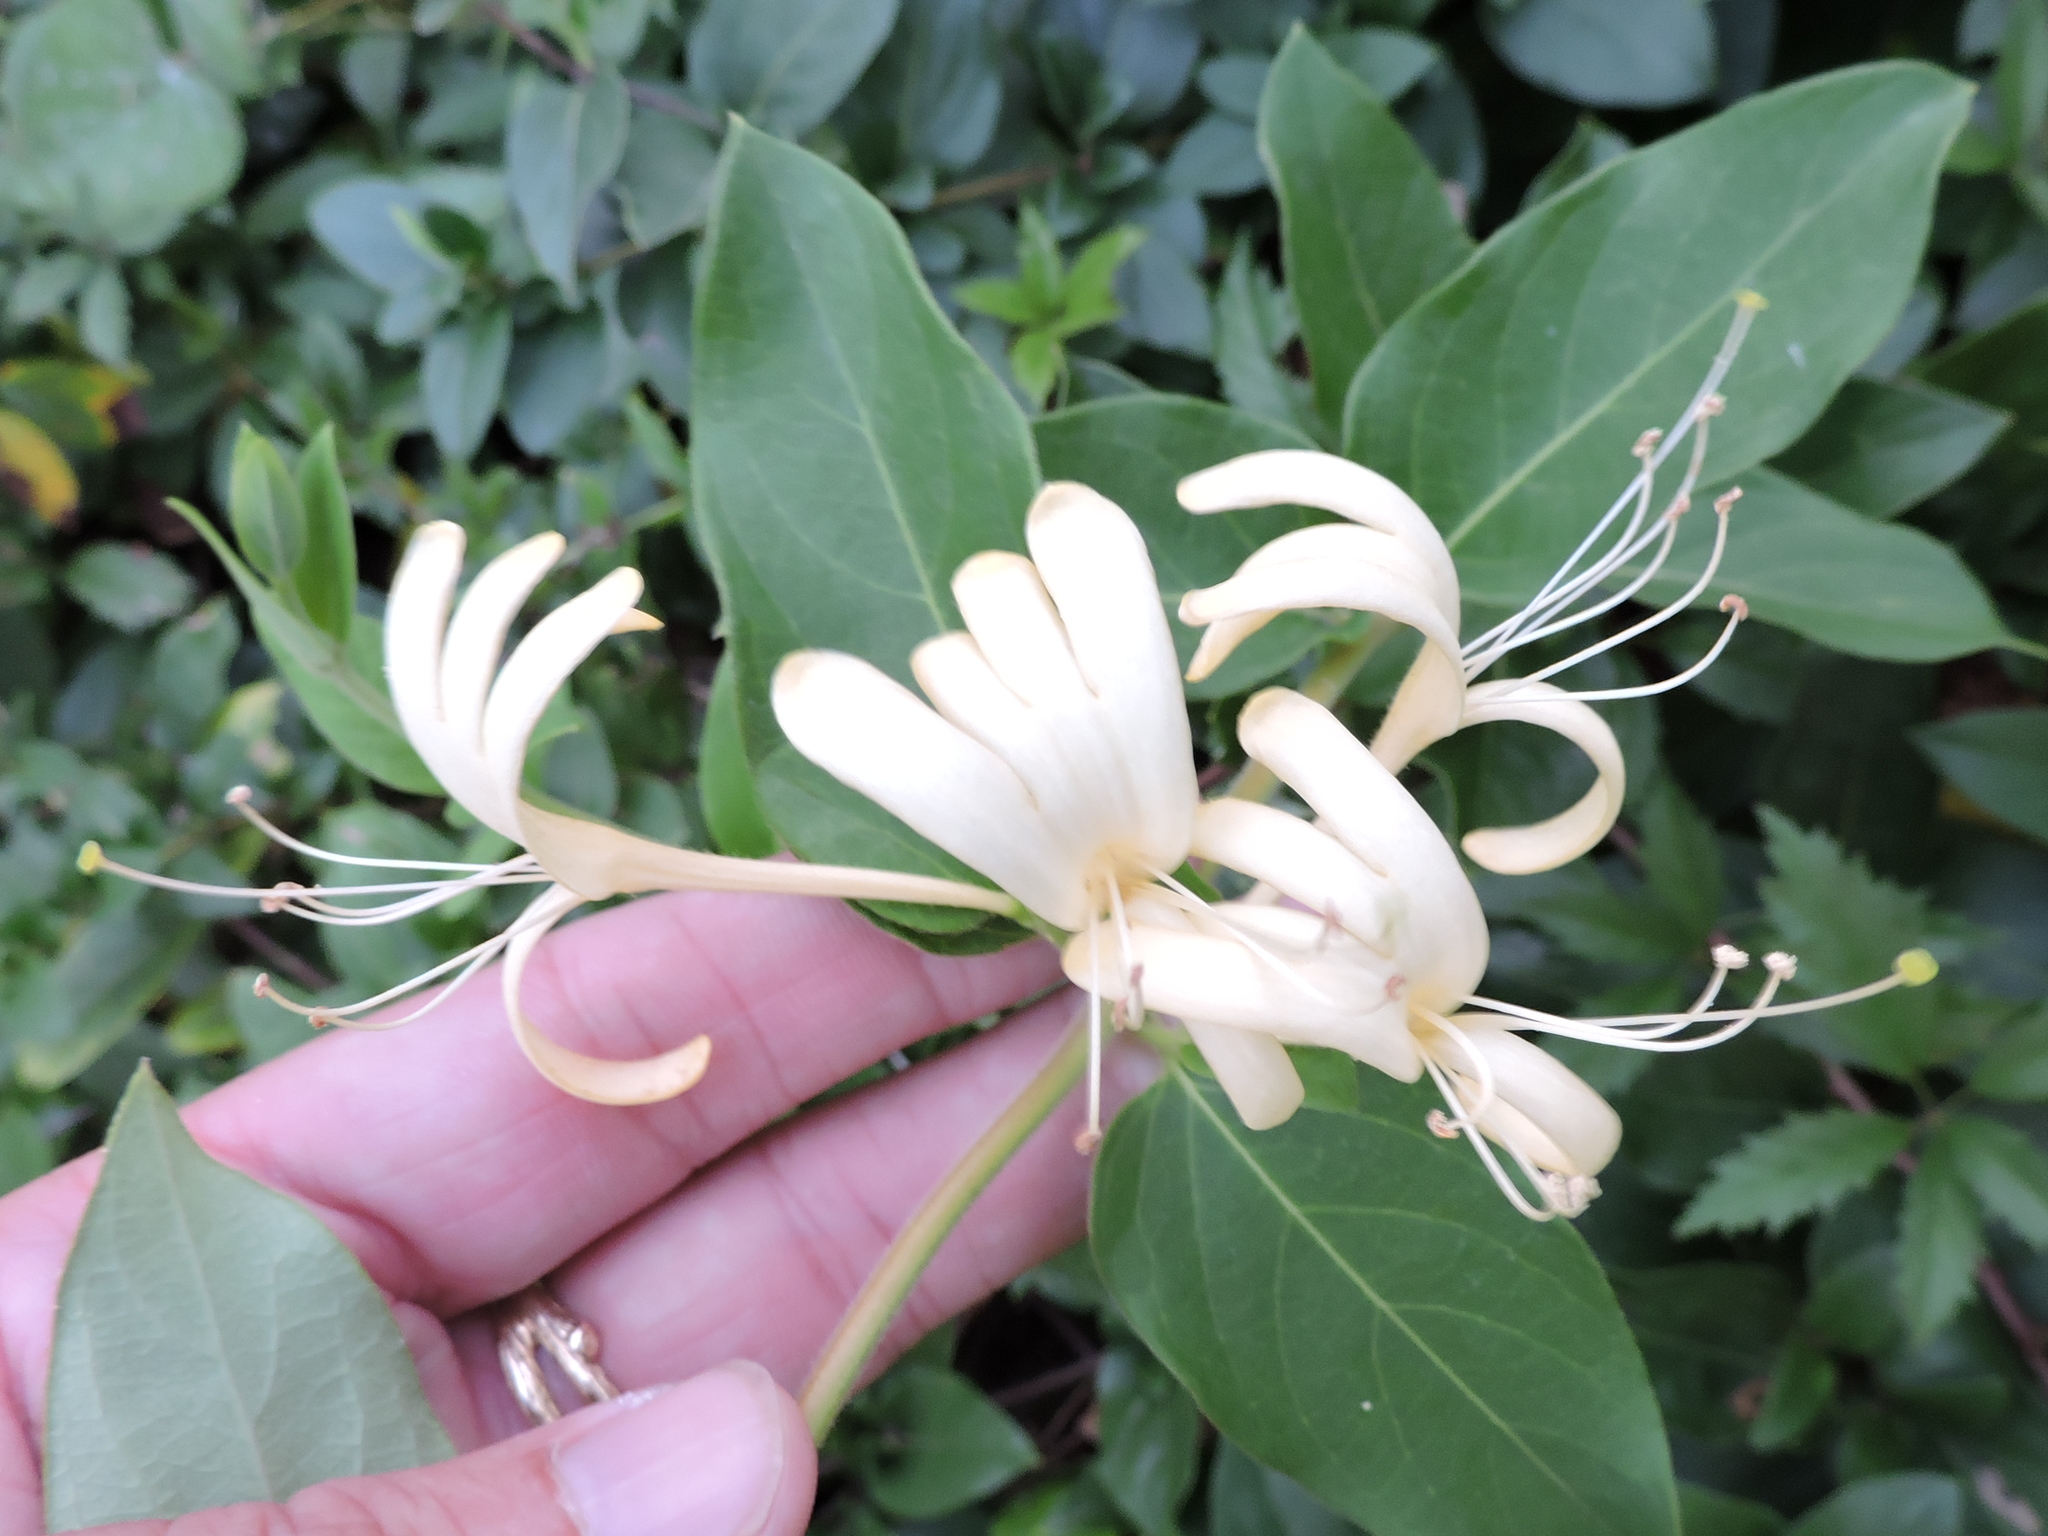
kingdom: Plantae
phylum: Tracheophyta
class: Magnoliopsida
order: Dipsacales
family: Caprifoliaceae
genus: Lonicera
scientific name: Lonicera japonica
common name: Japanese honeysuckle
